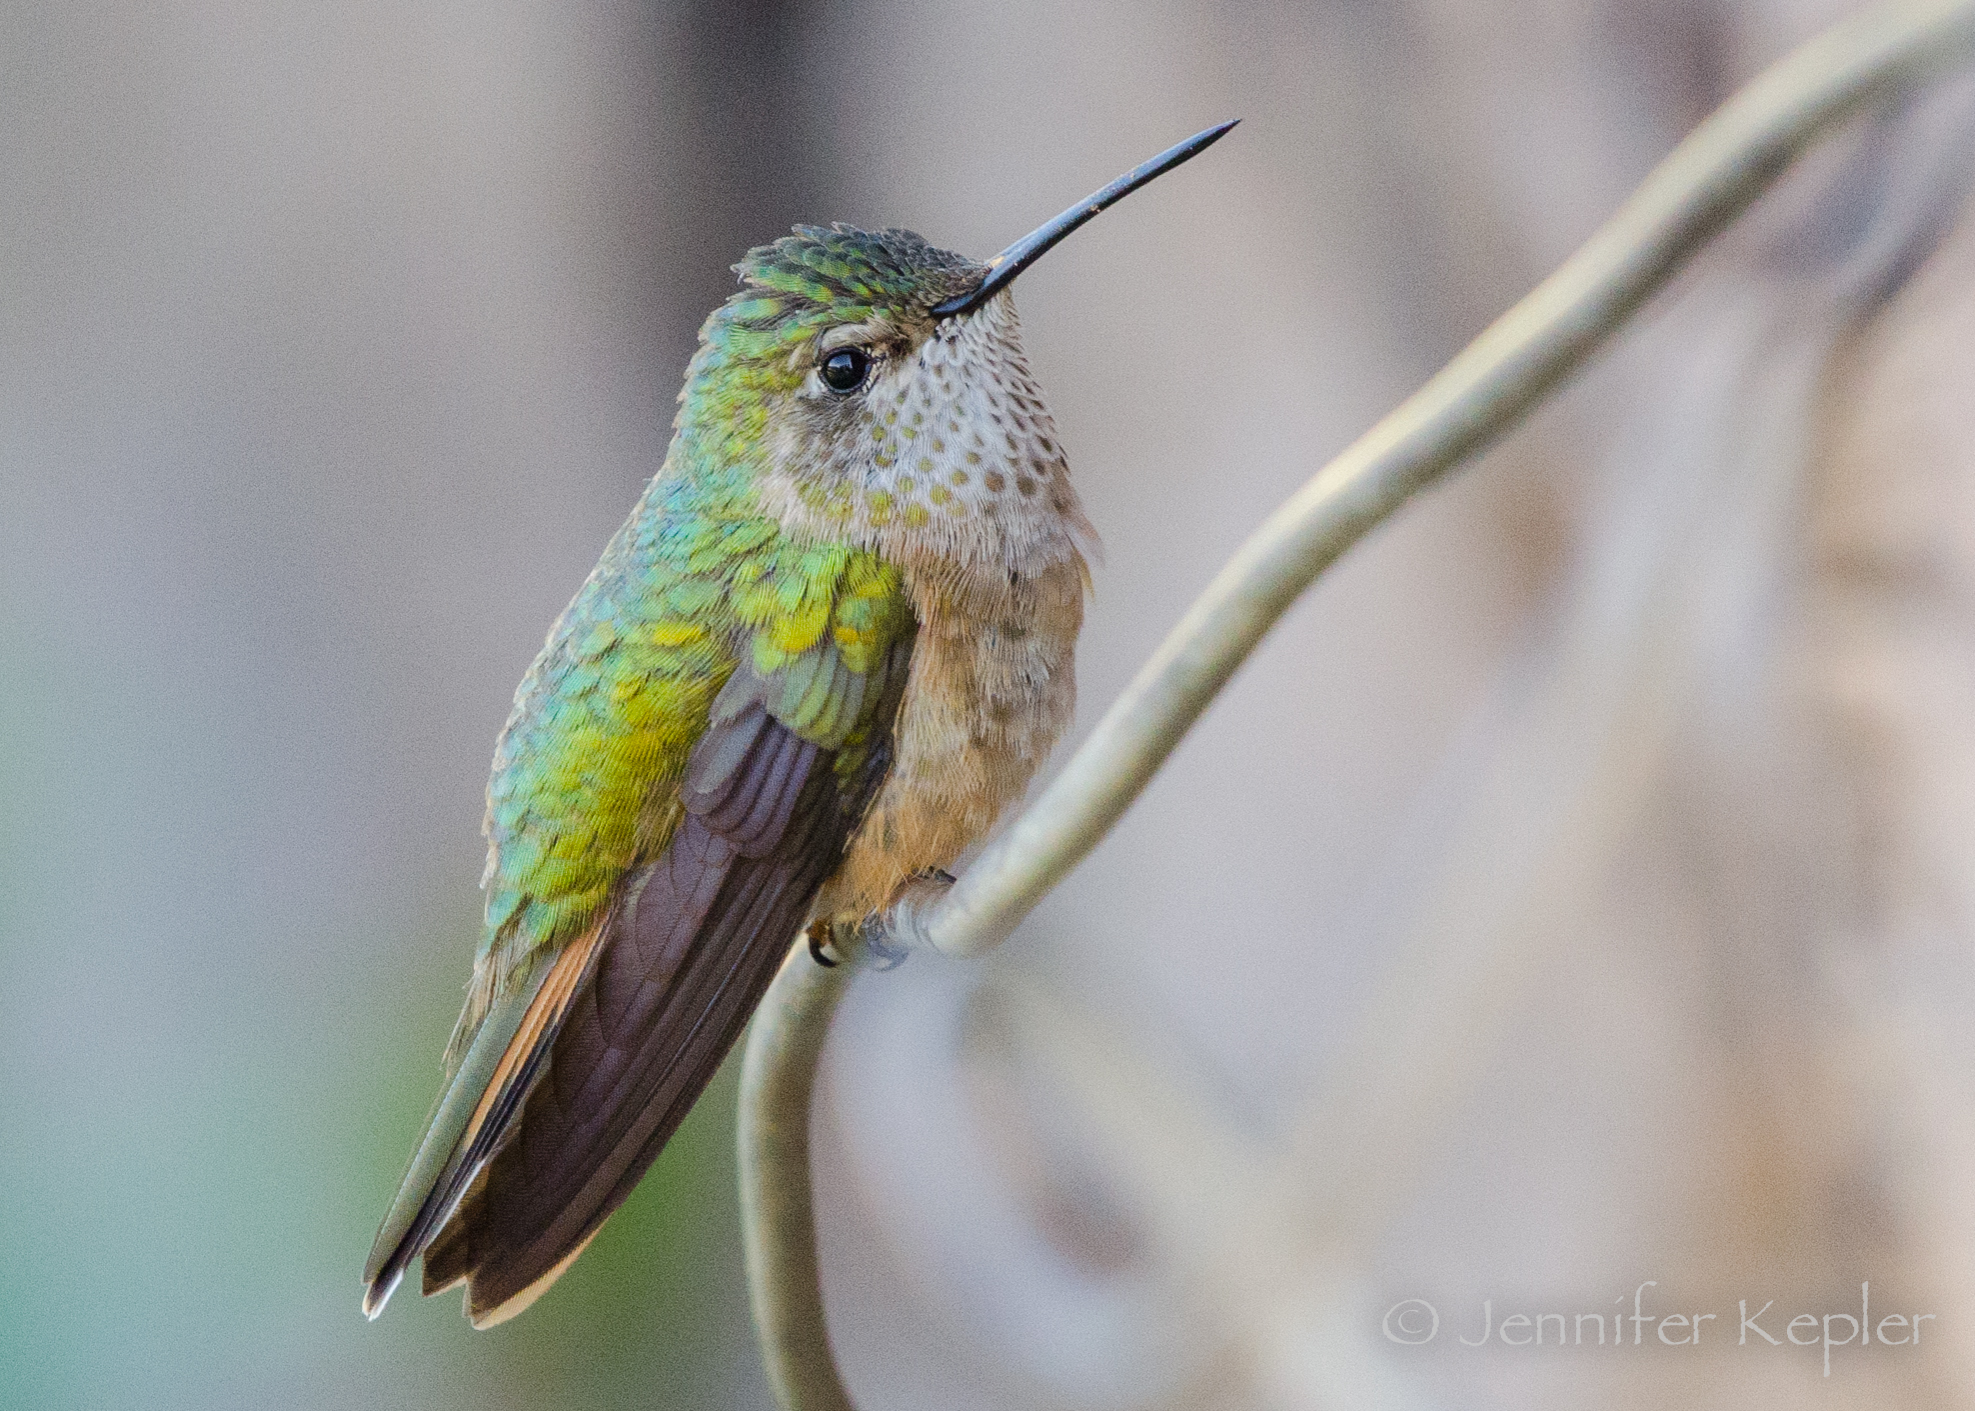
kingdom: Animalia
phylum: Chordata
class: Aves
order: Apodiformes
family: Trochilidae
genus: Selasphorus
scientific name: Selasphorus platycercus
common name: Broad-tailed hummingbird
